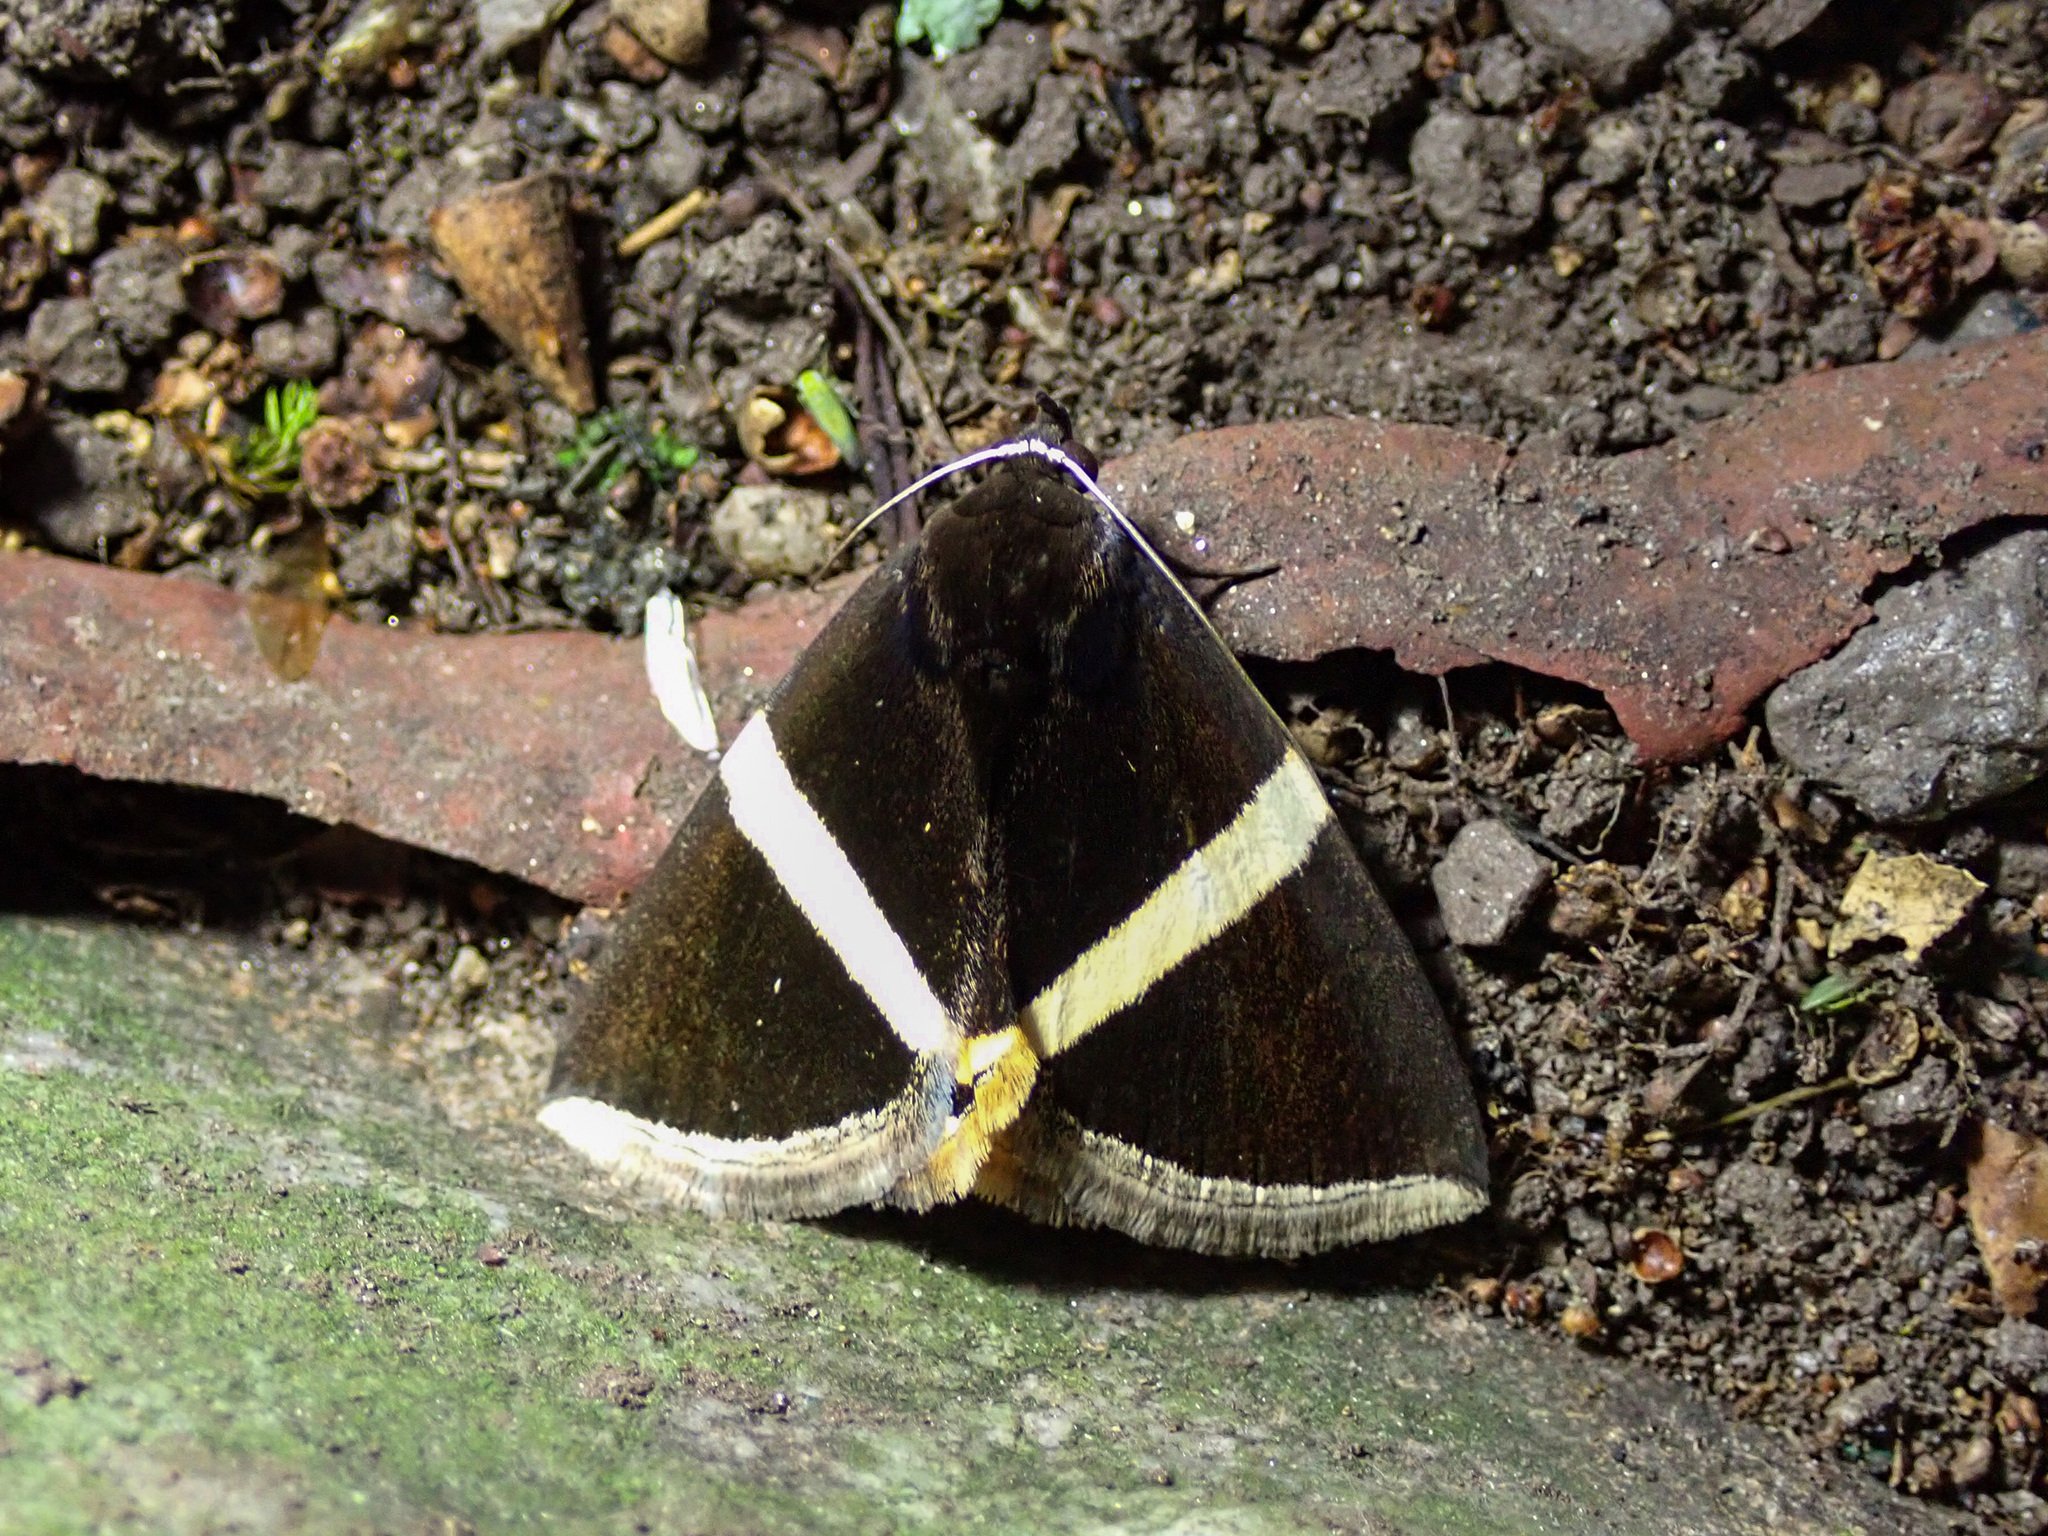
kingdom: Animalia
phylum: Arthropoda
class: Insecta
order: Lepidoptera
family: Erebidae
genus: Fodina
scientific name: Fodina oriolus
